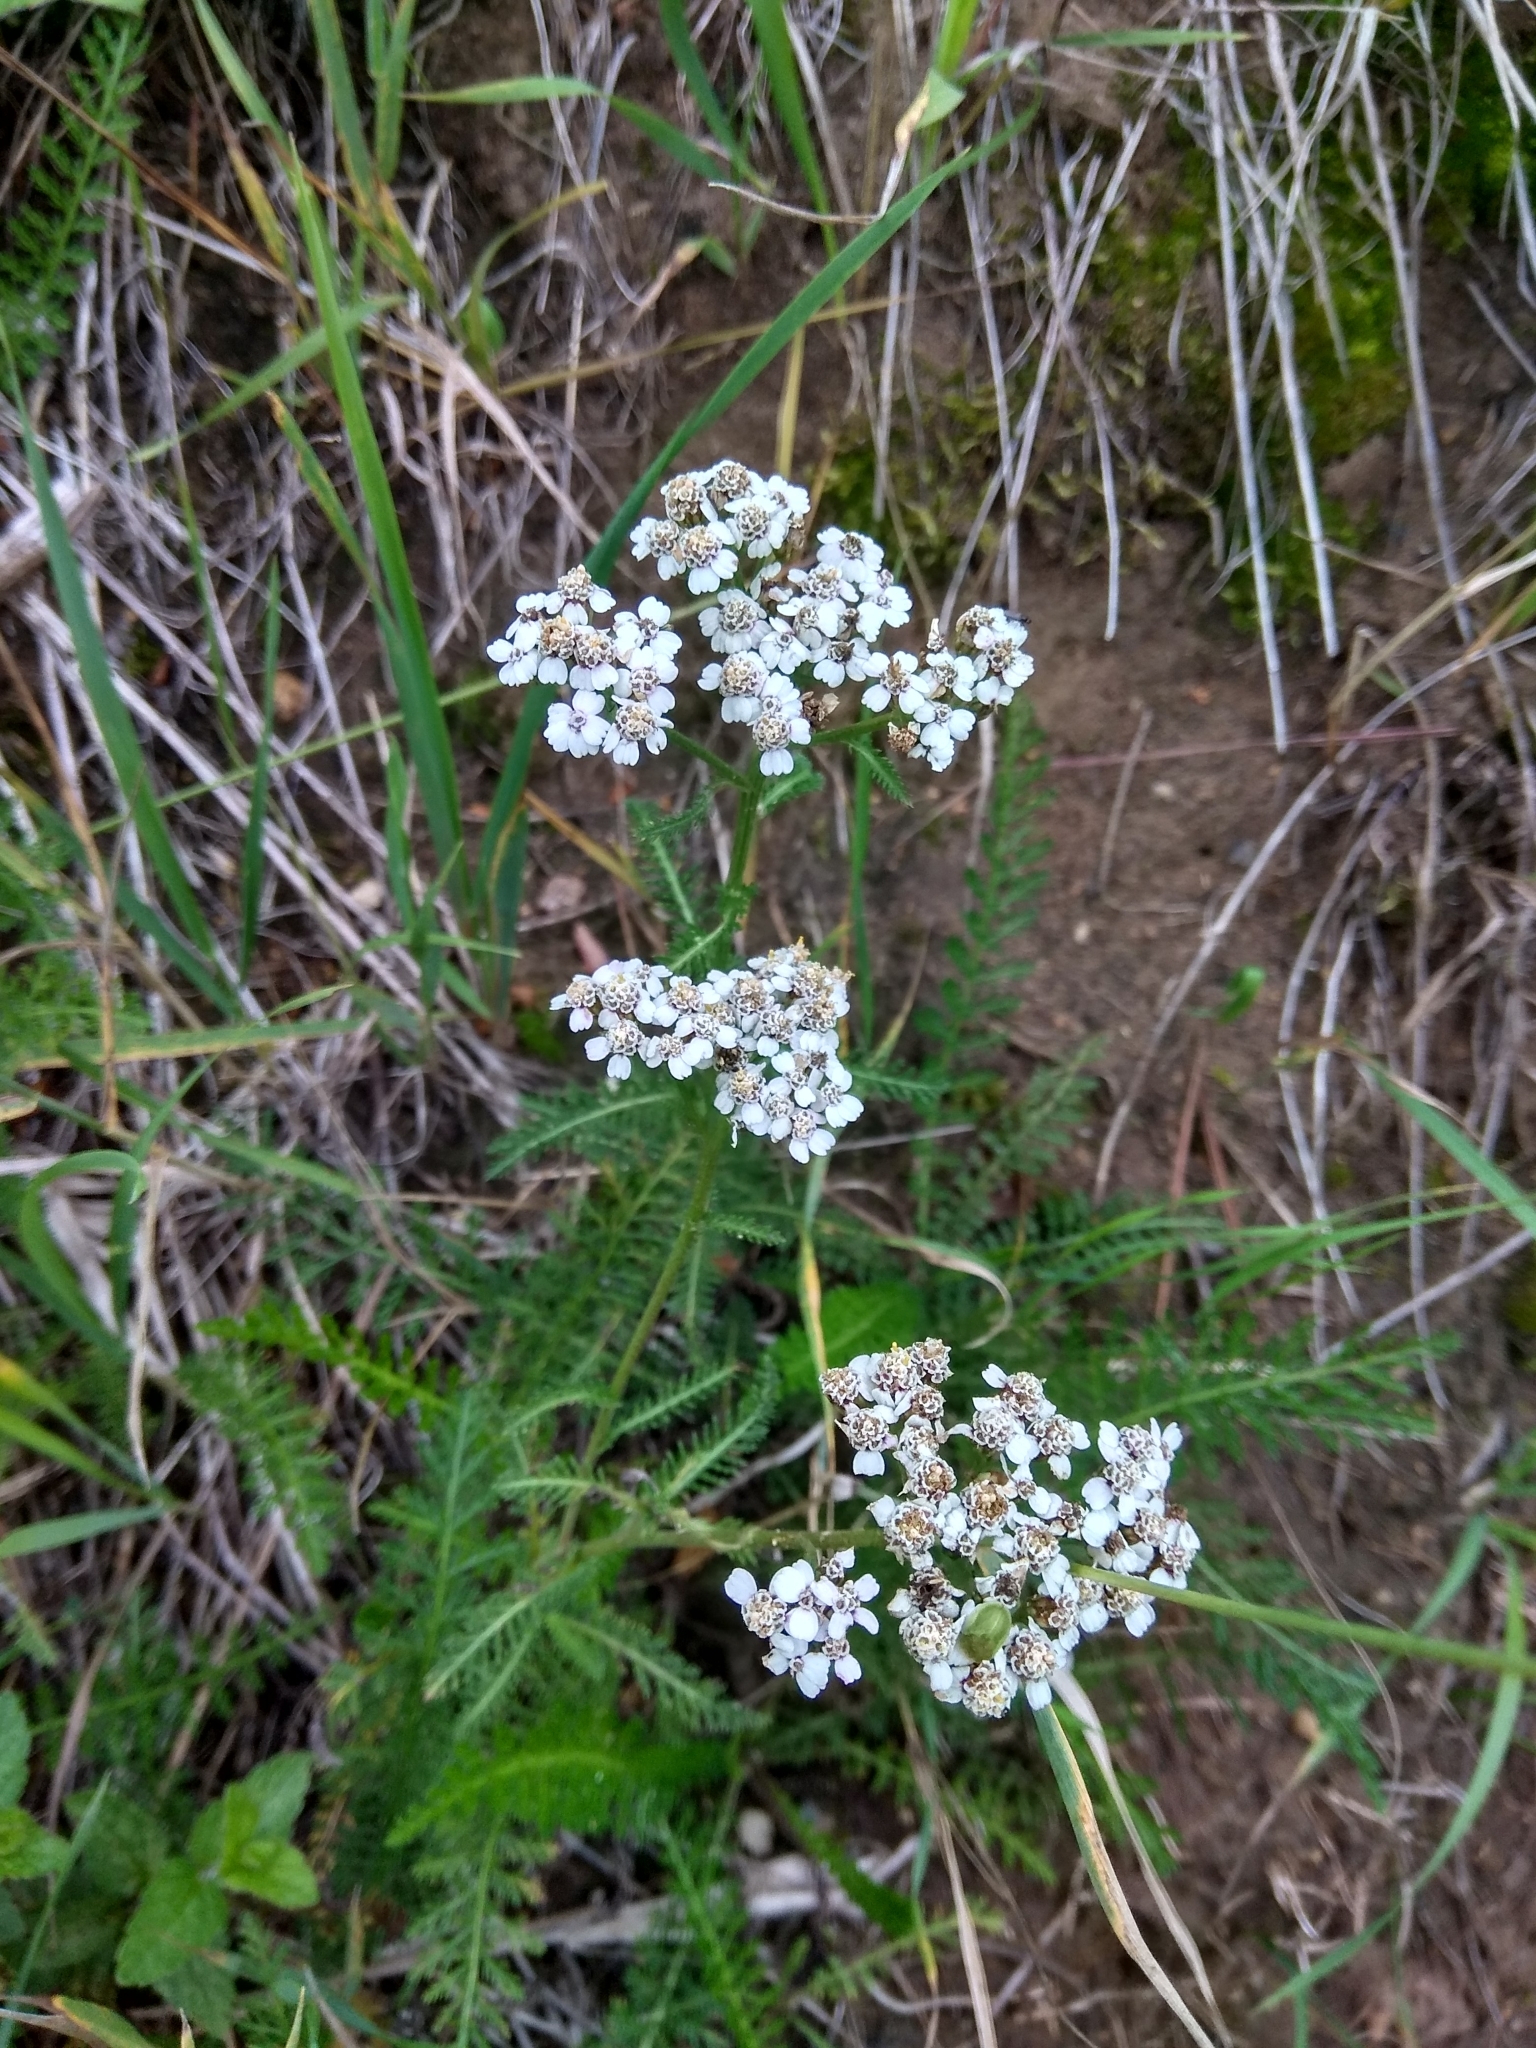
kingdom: Plantae
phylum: Tracheophyta
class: Magnoliopsida
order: Asterales
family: Asteraceae
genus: Achillea
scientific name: Achillea millefolium
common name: Yarrow
